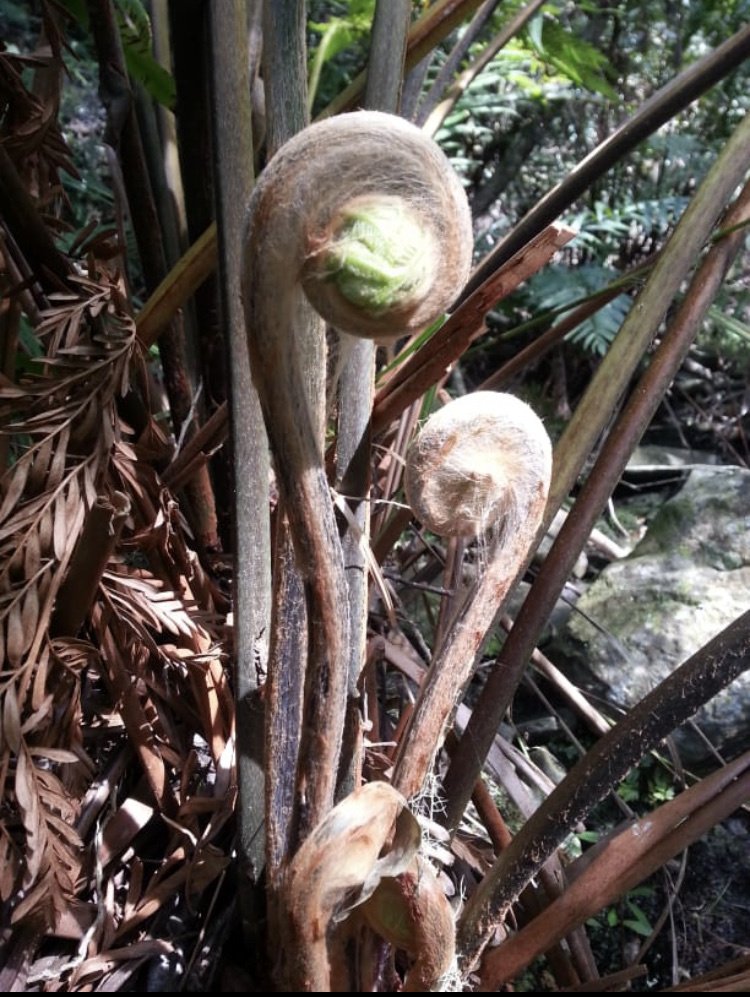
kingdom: Plantae
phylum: Tracheophyta
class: Polypodiopsida
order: Osmundales
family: Osmundaceae
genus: Todea
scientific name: Todea barbara
